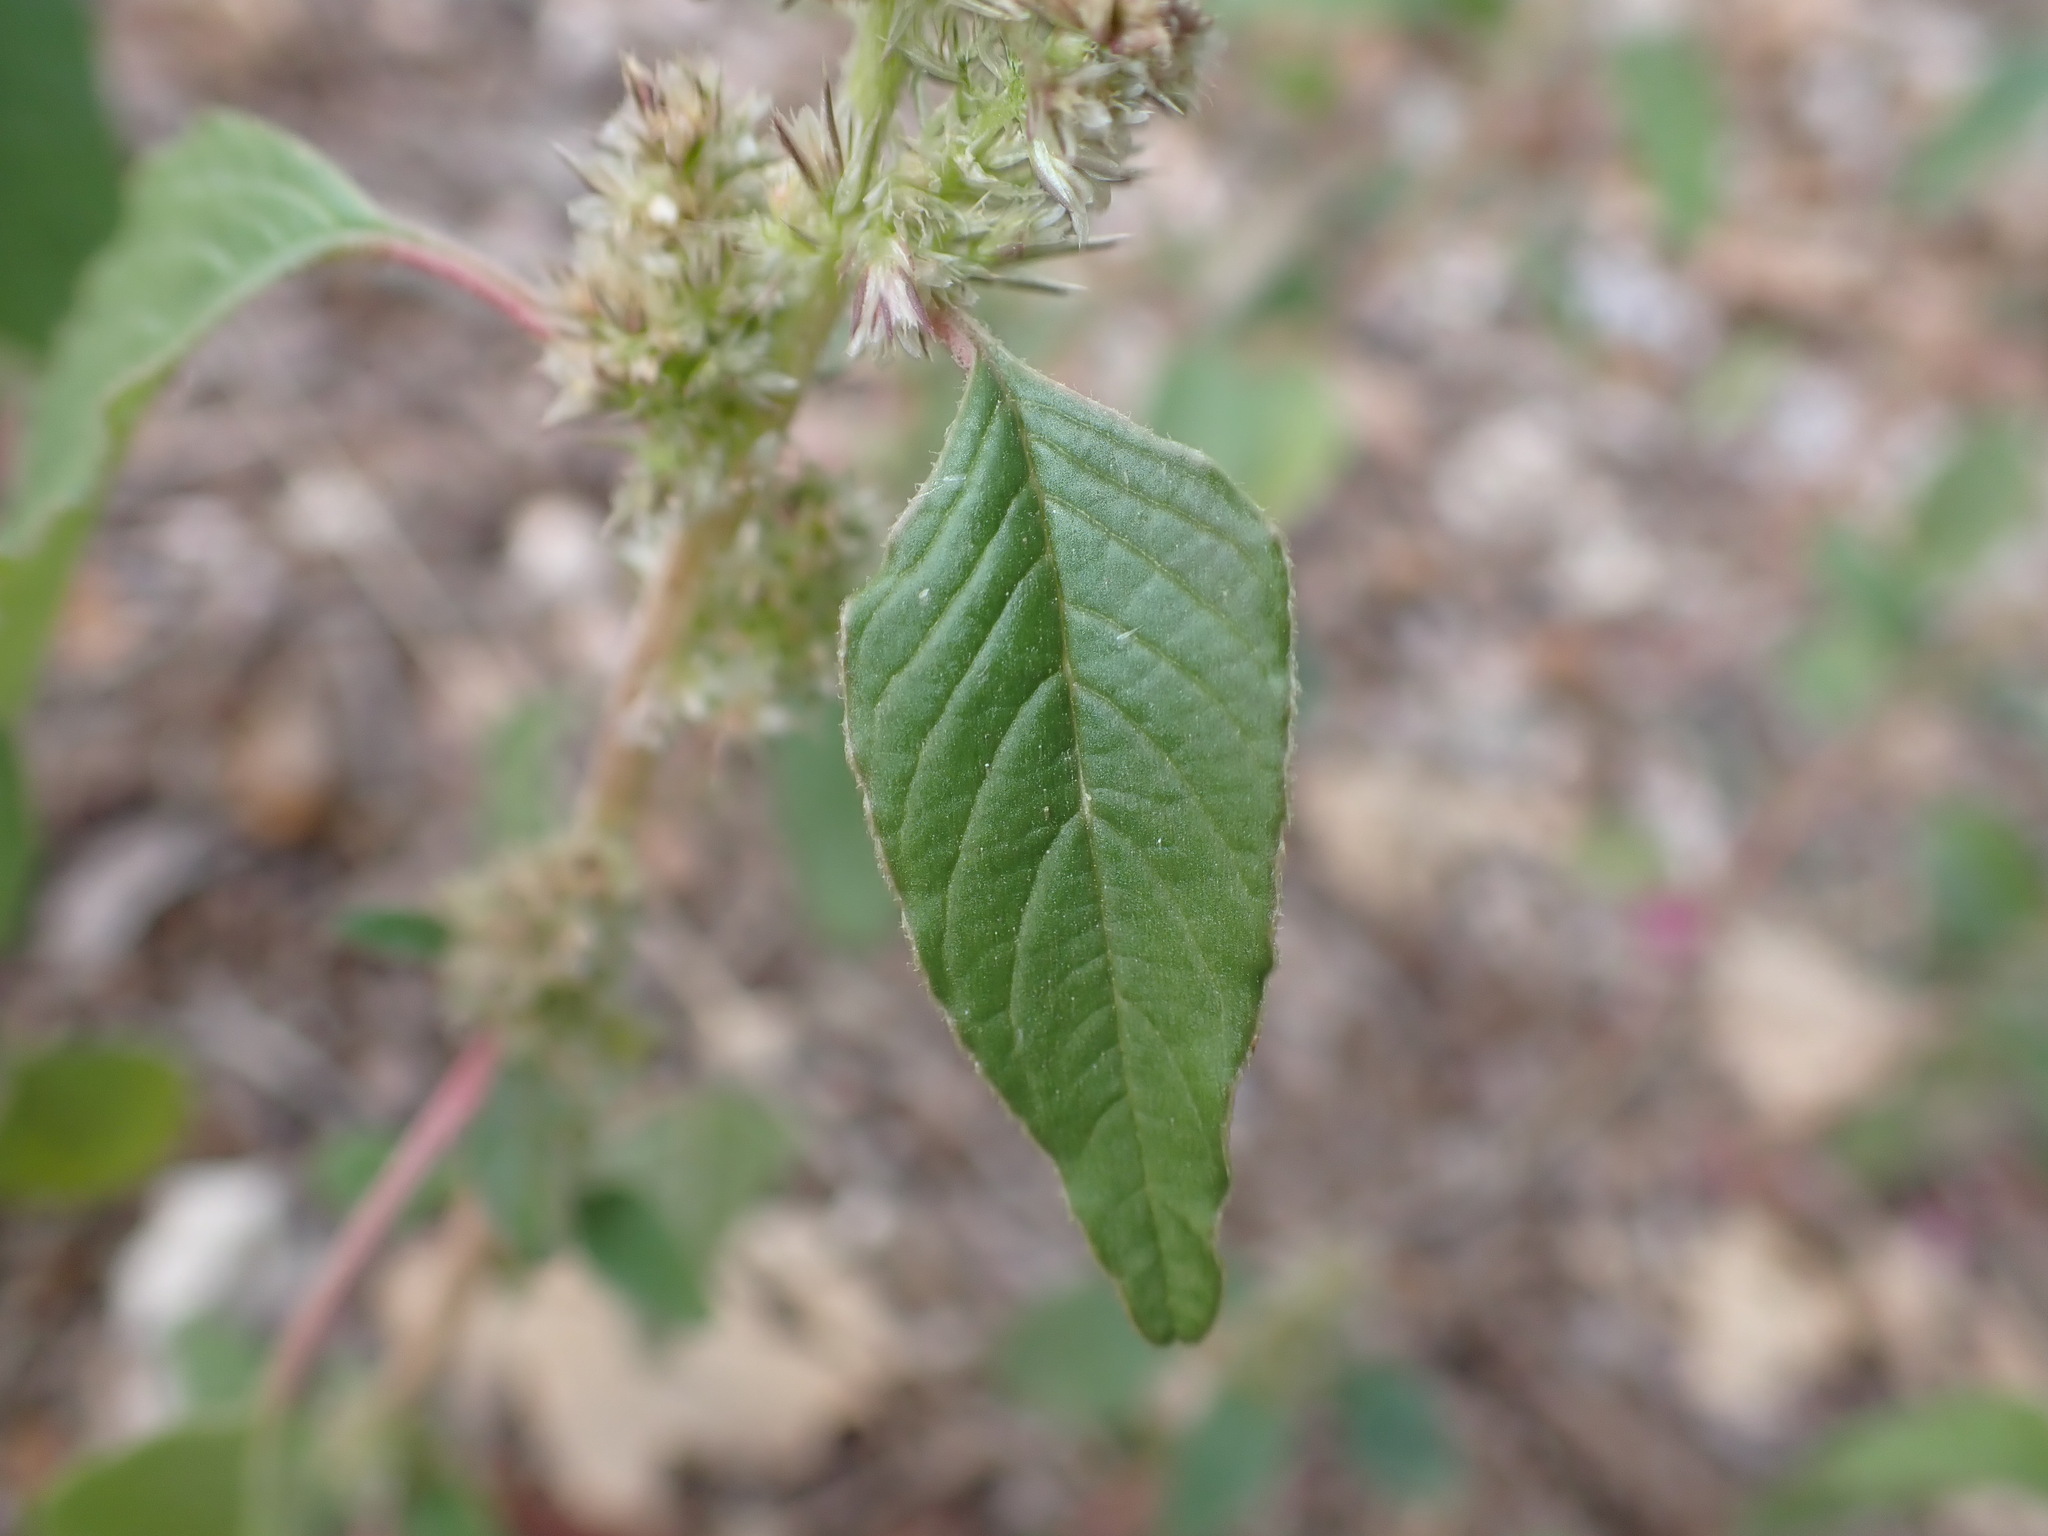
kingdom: Plantae
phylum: Tracheophyta
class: Magnoliopsida
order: Caryophyllales
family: Amaranthaceae
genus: Amaranthus
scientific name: Amaranthus retroflexus
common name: Redroot amaranth
